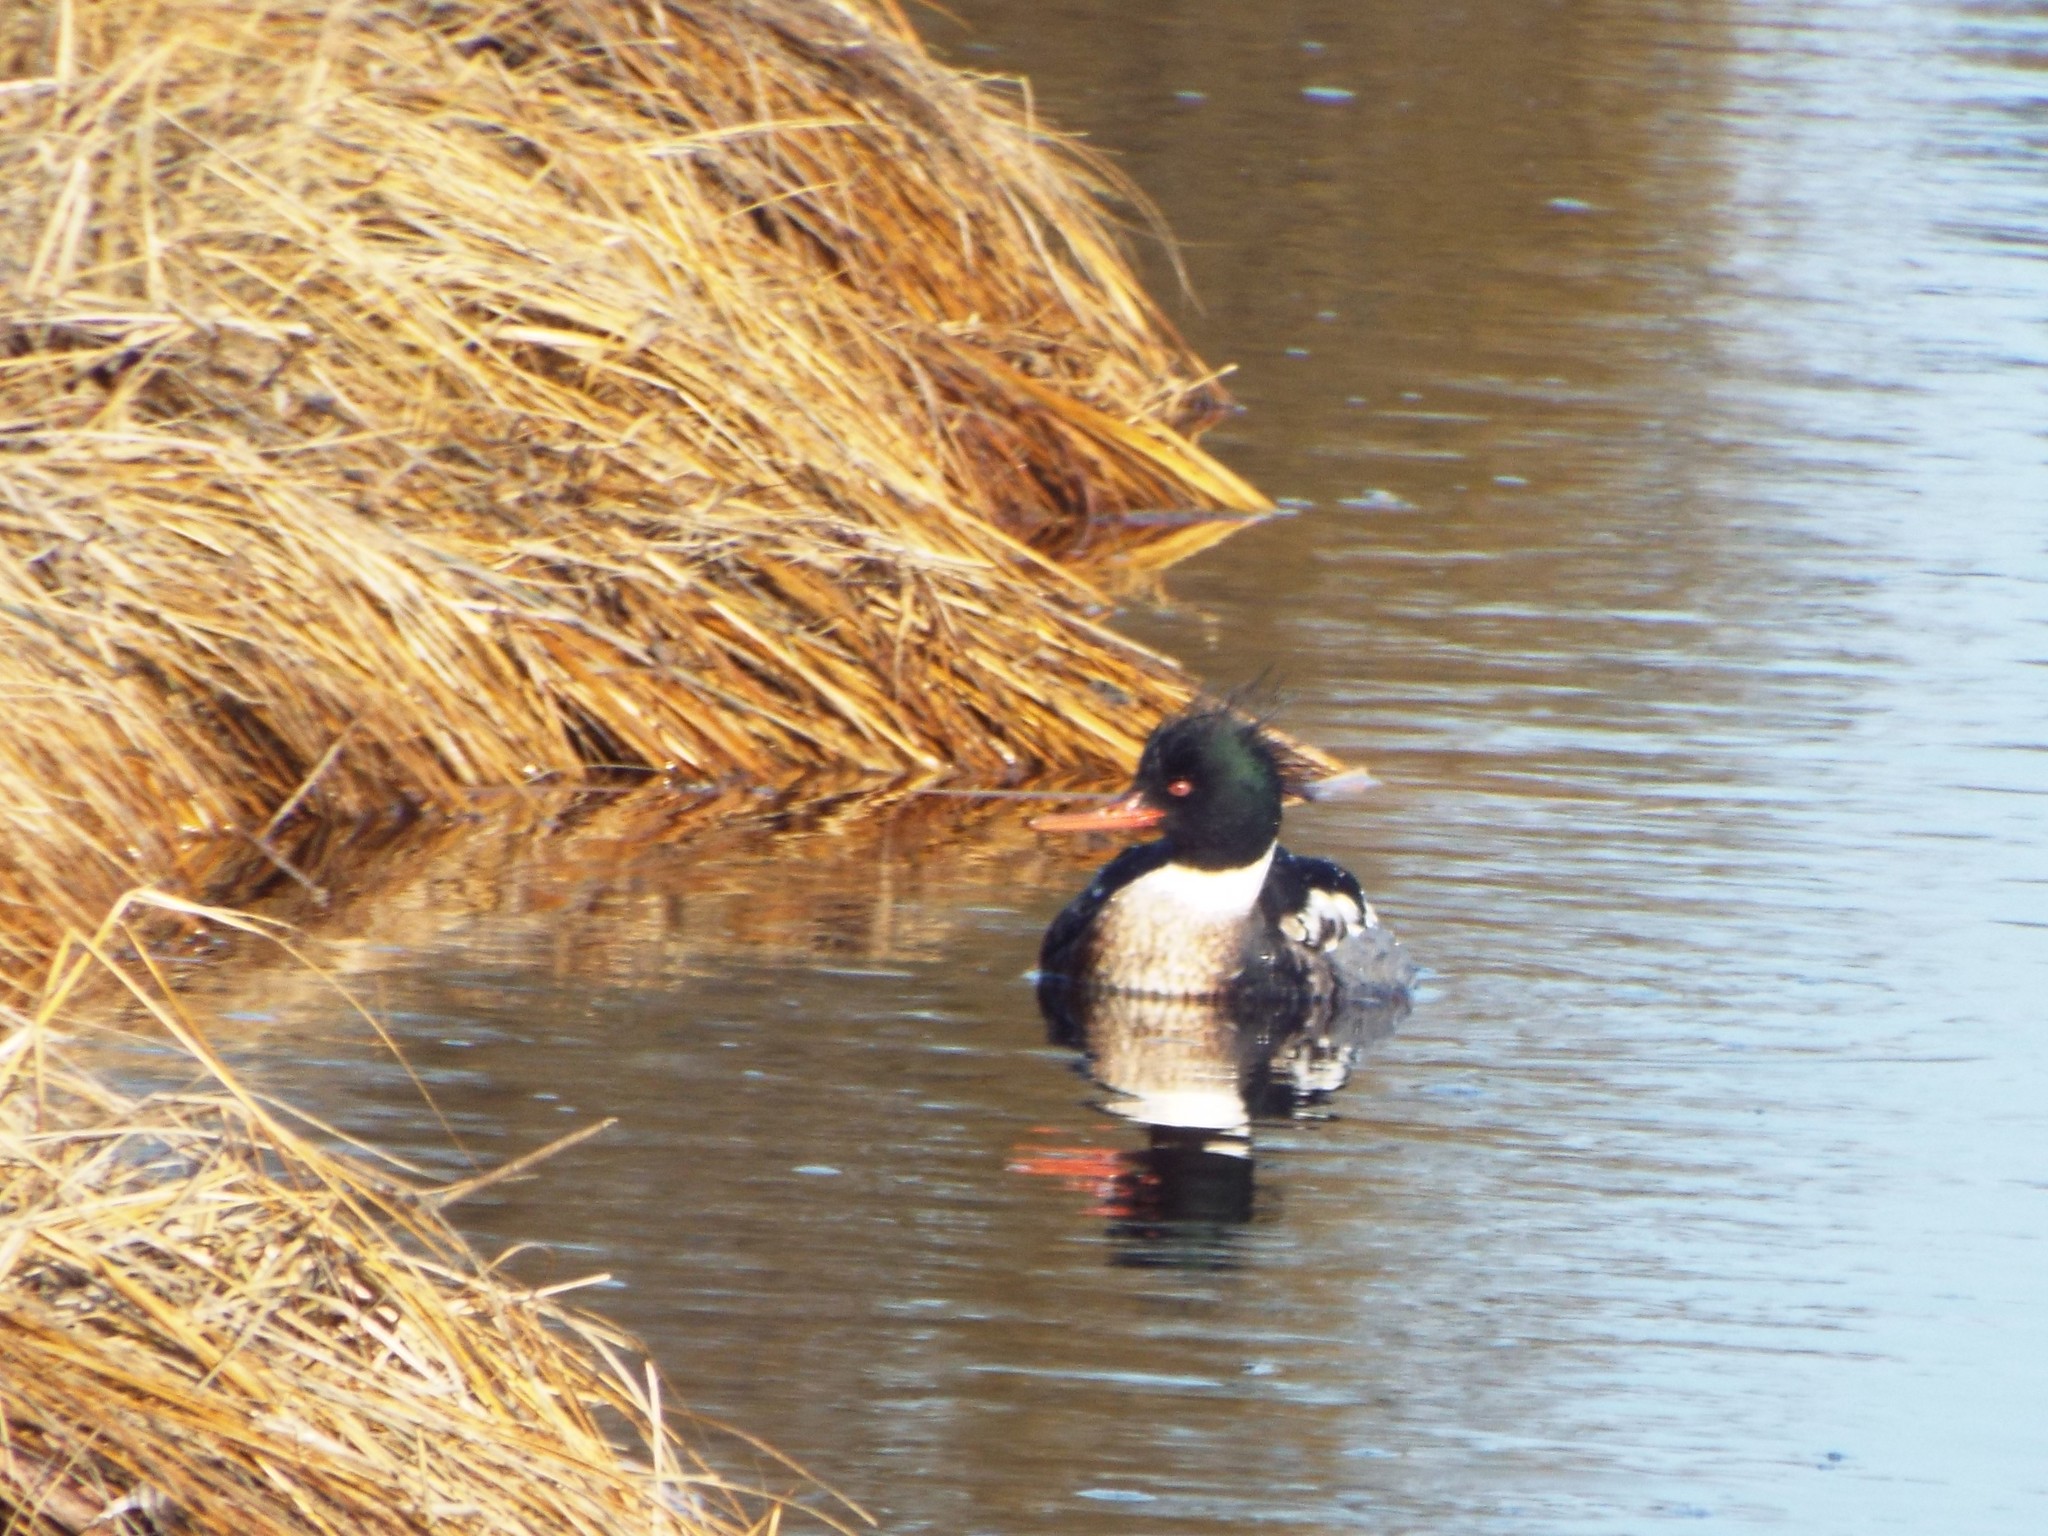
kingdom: Animalia
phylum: Chordata
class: Aves
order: Anseriformes
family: Anatidae
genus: Mergus
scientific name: Mergus serrator
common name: Red-breasted merganser
